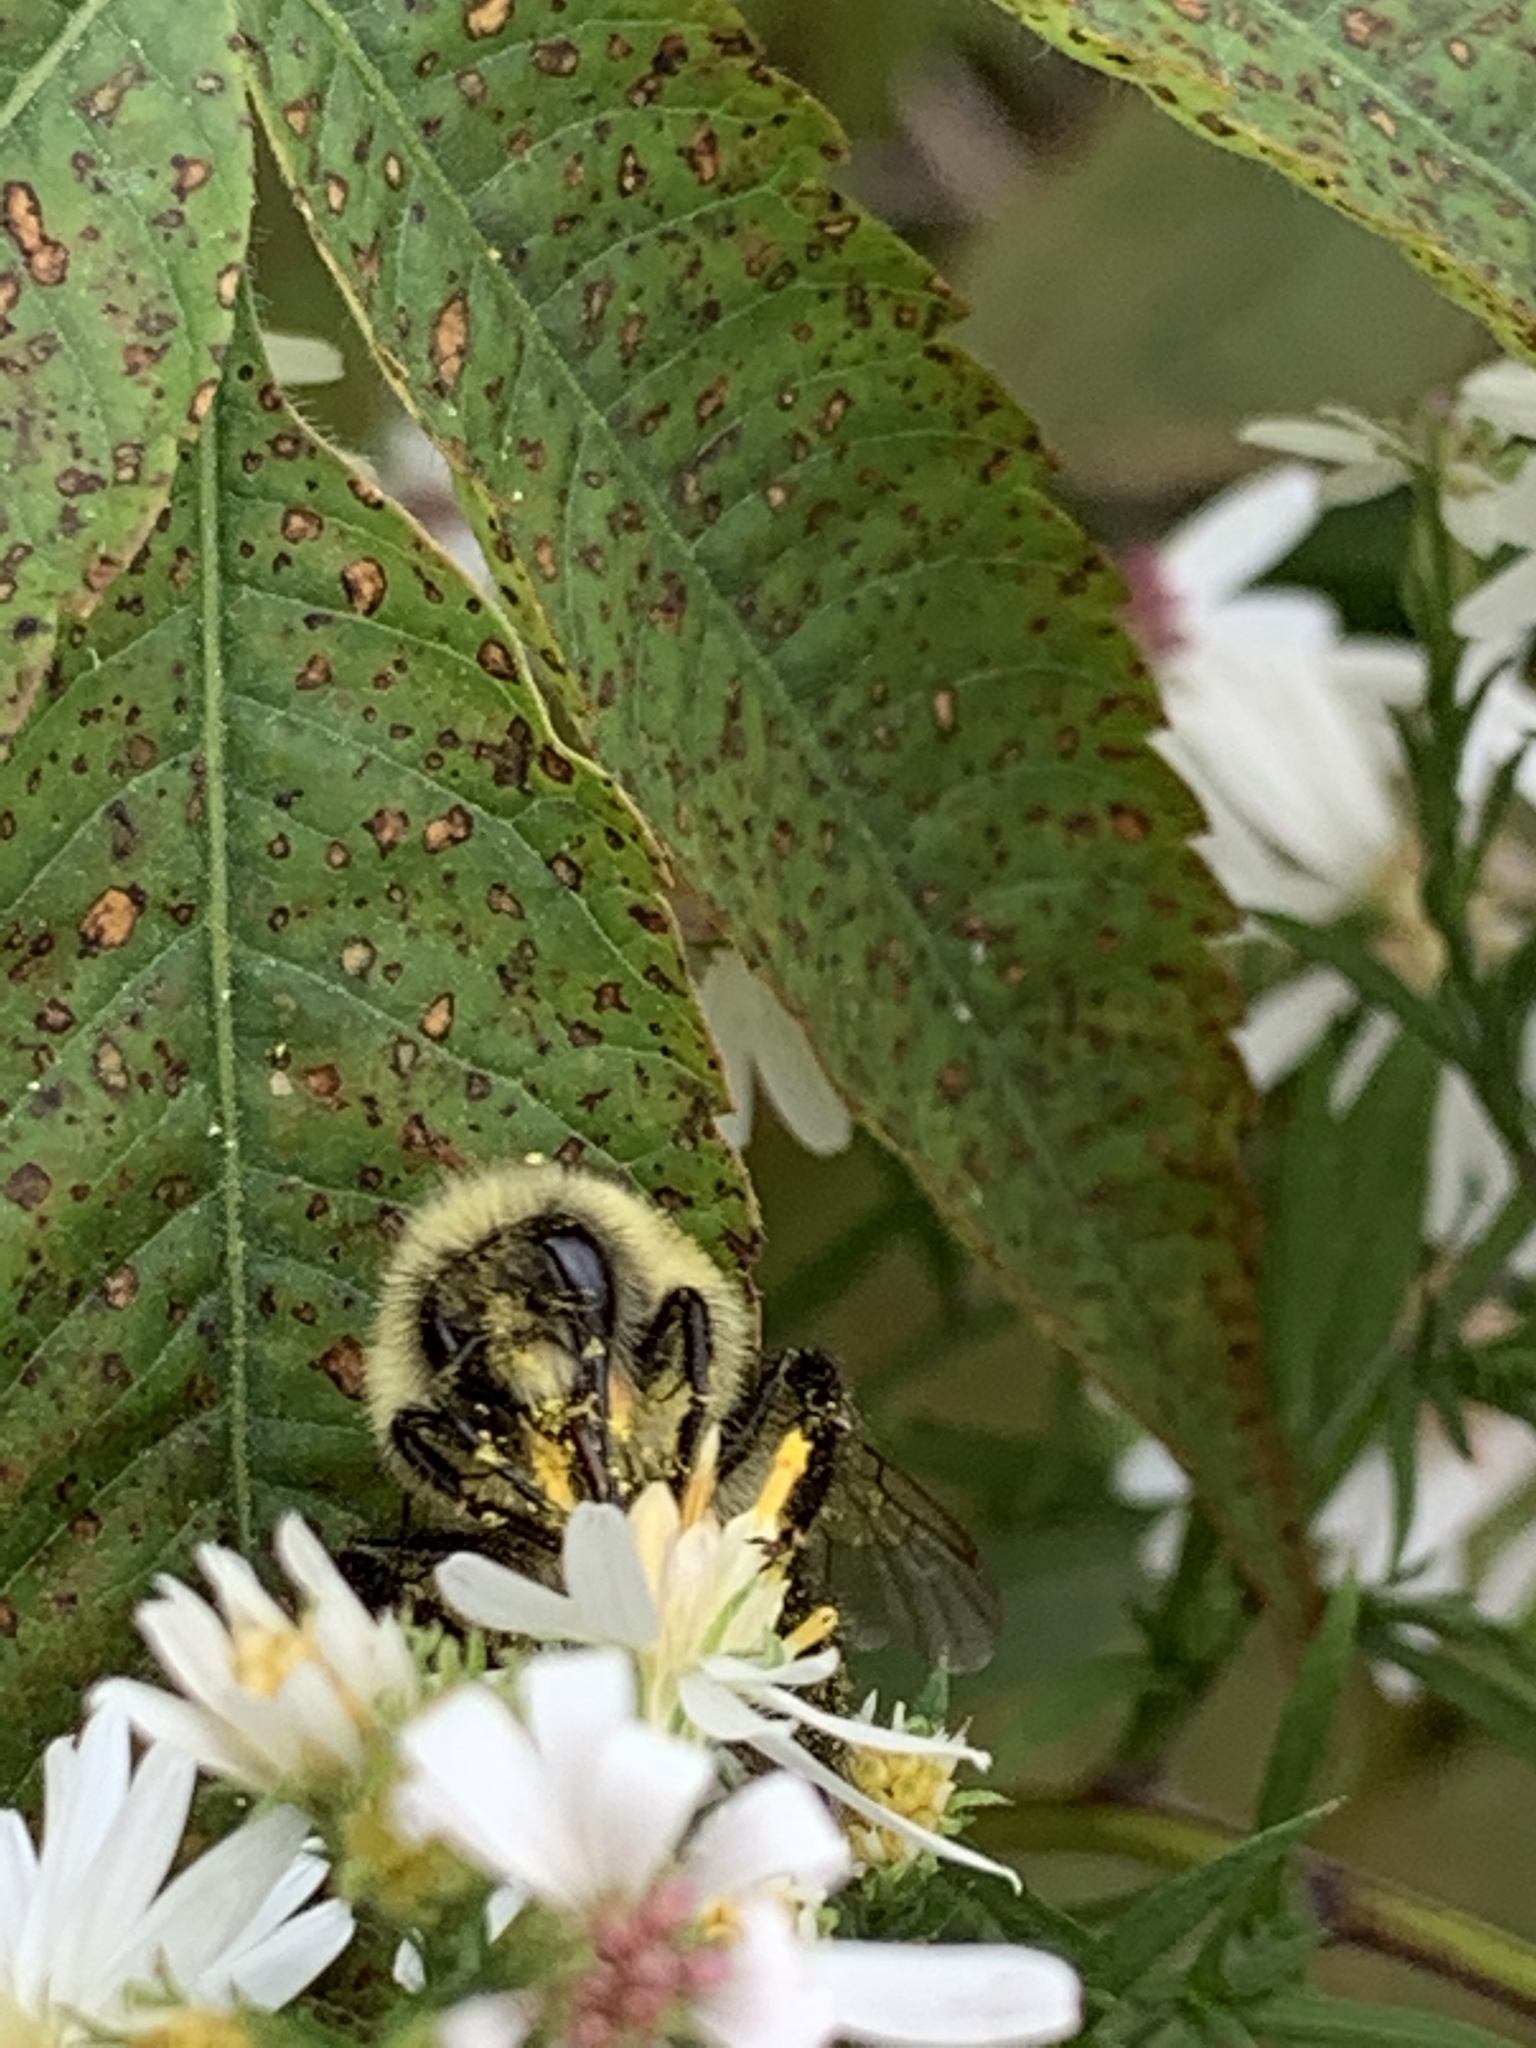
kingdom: Animalia
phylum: Arthropoda
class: Insecta
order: Hymenoptera
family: Apidae
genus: Bombus
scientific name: Bombus
